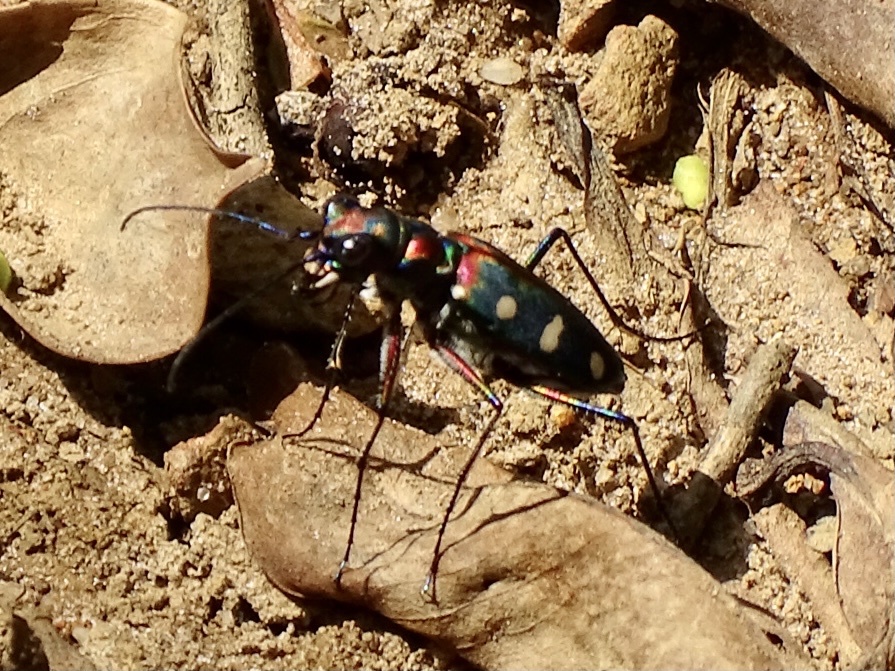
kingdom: Animalia
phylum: Arthropoda
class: Insecta
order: Coleoptera
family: Carabidae
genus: Cicindela
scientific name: Cicindela juxtata
